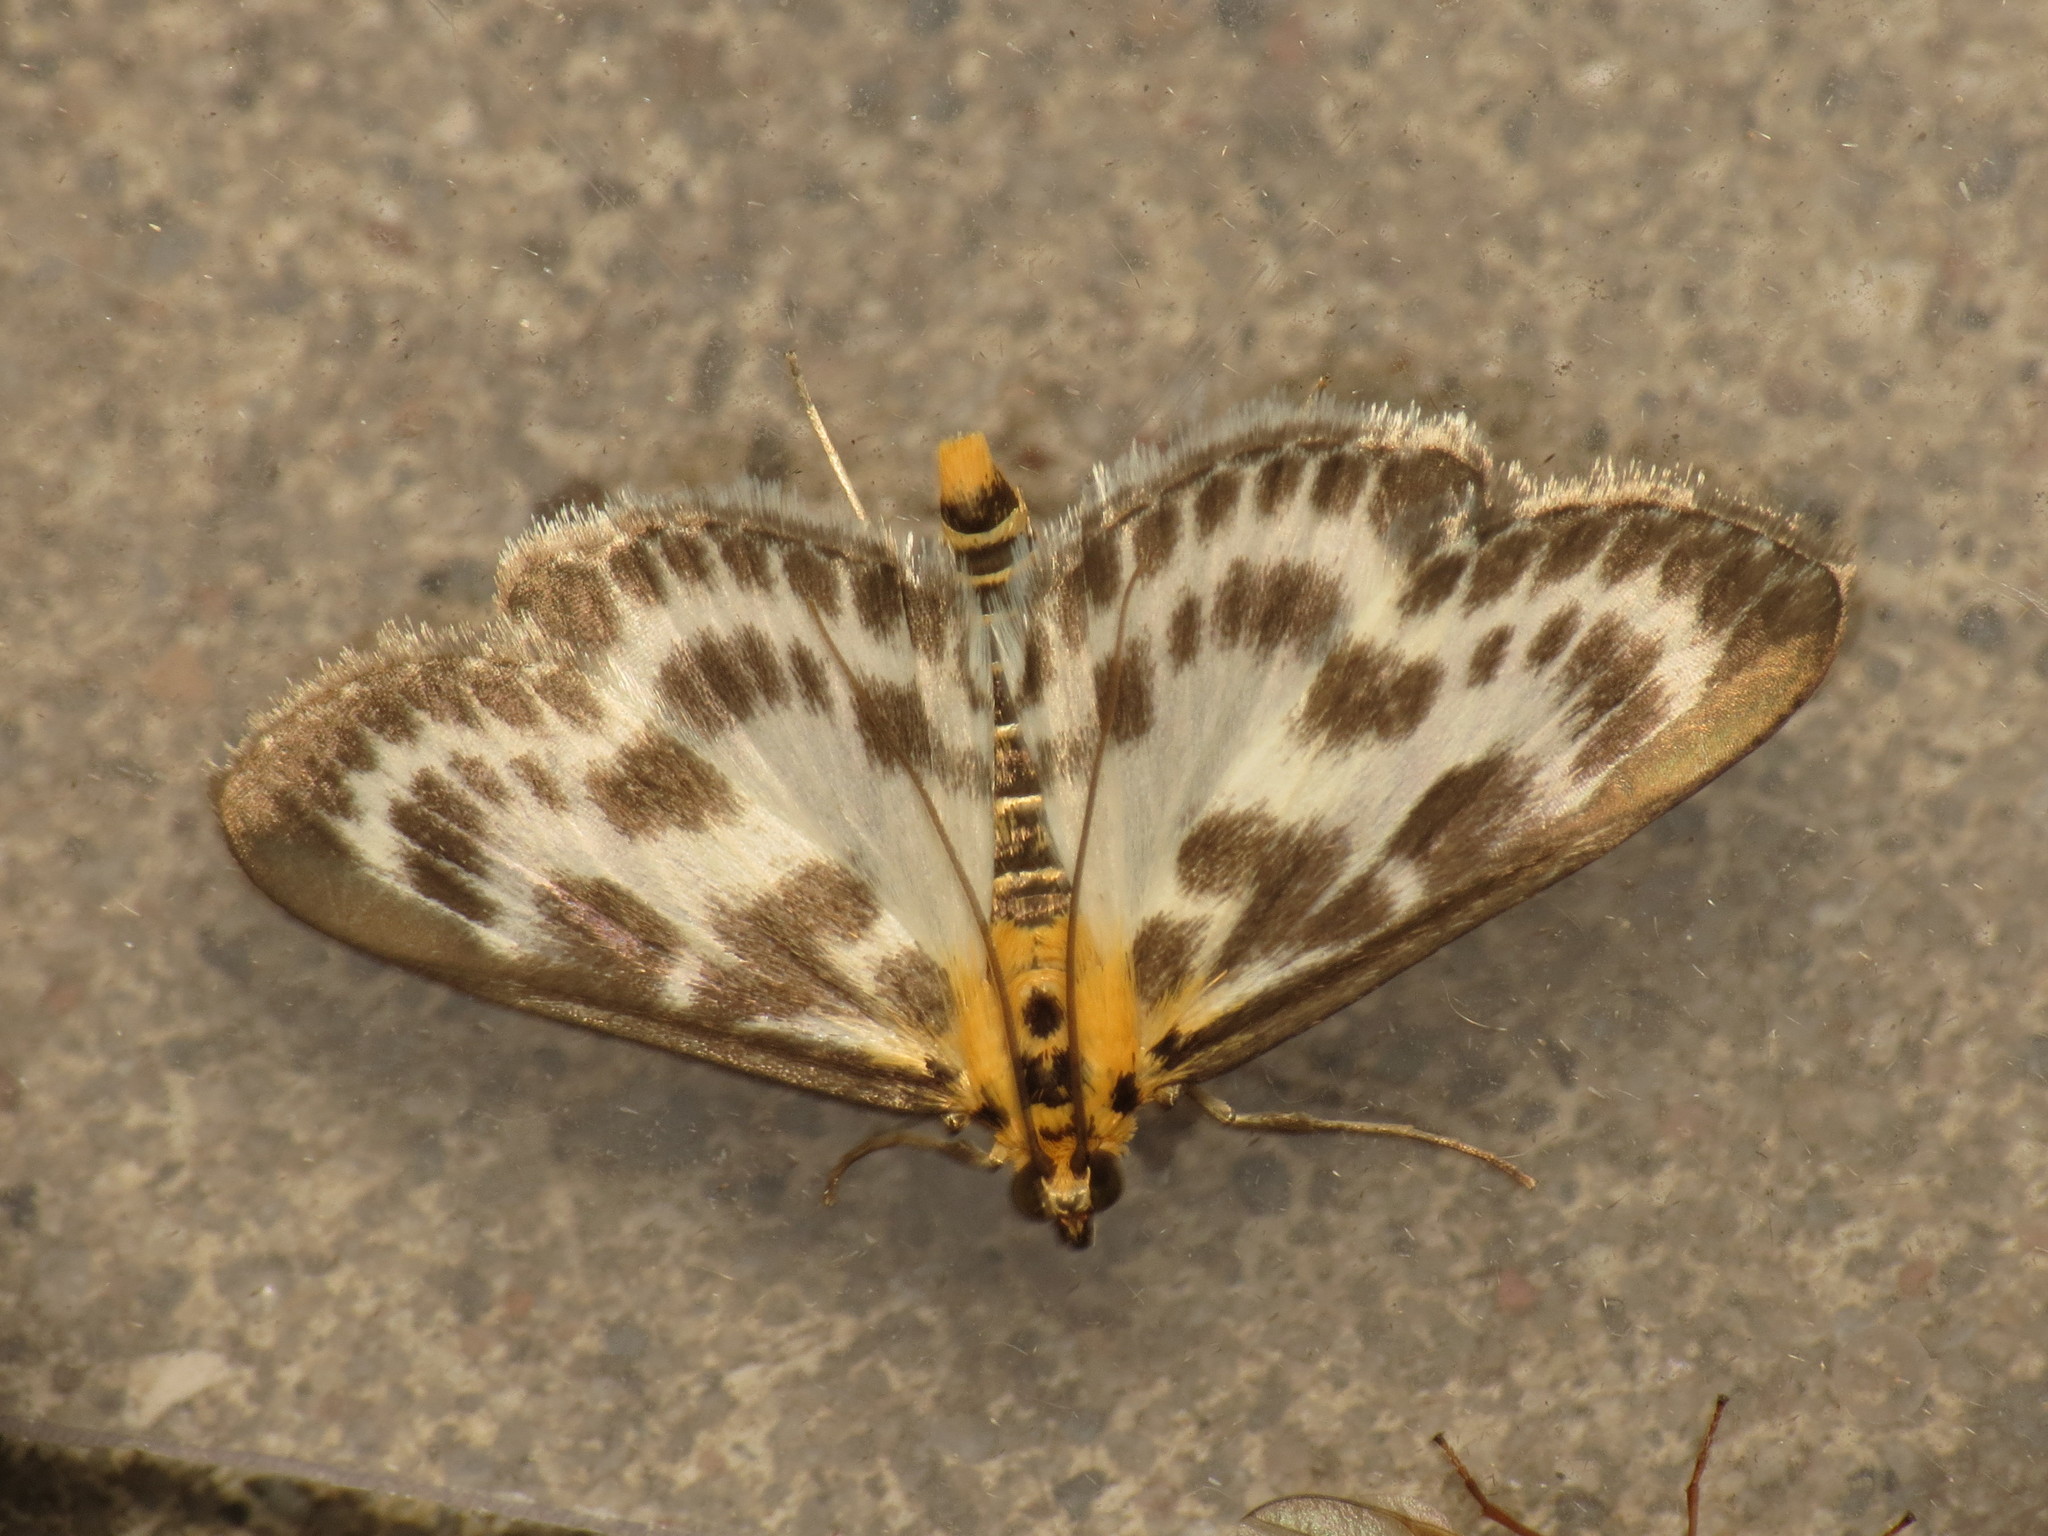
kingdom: Animalia
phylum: Arthropoda
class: Insecta
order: Lepidoptera
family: Crambidae
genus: Anania
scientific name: Anania hortulata
